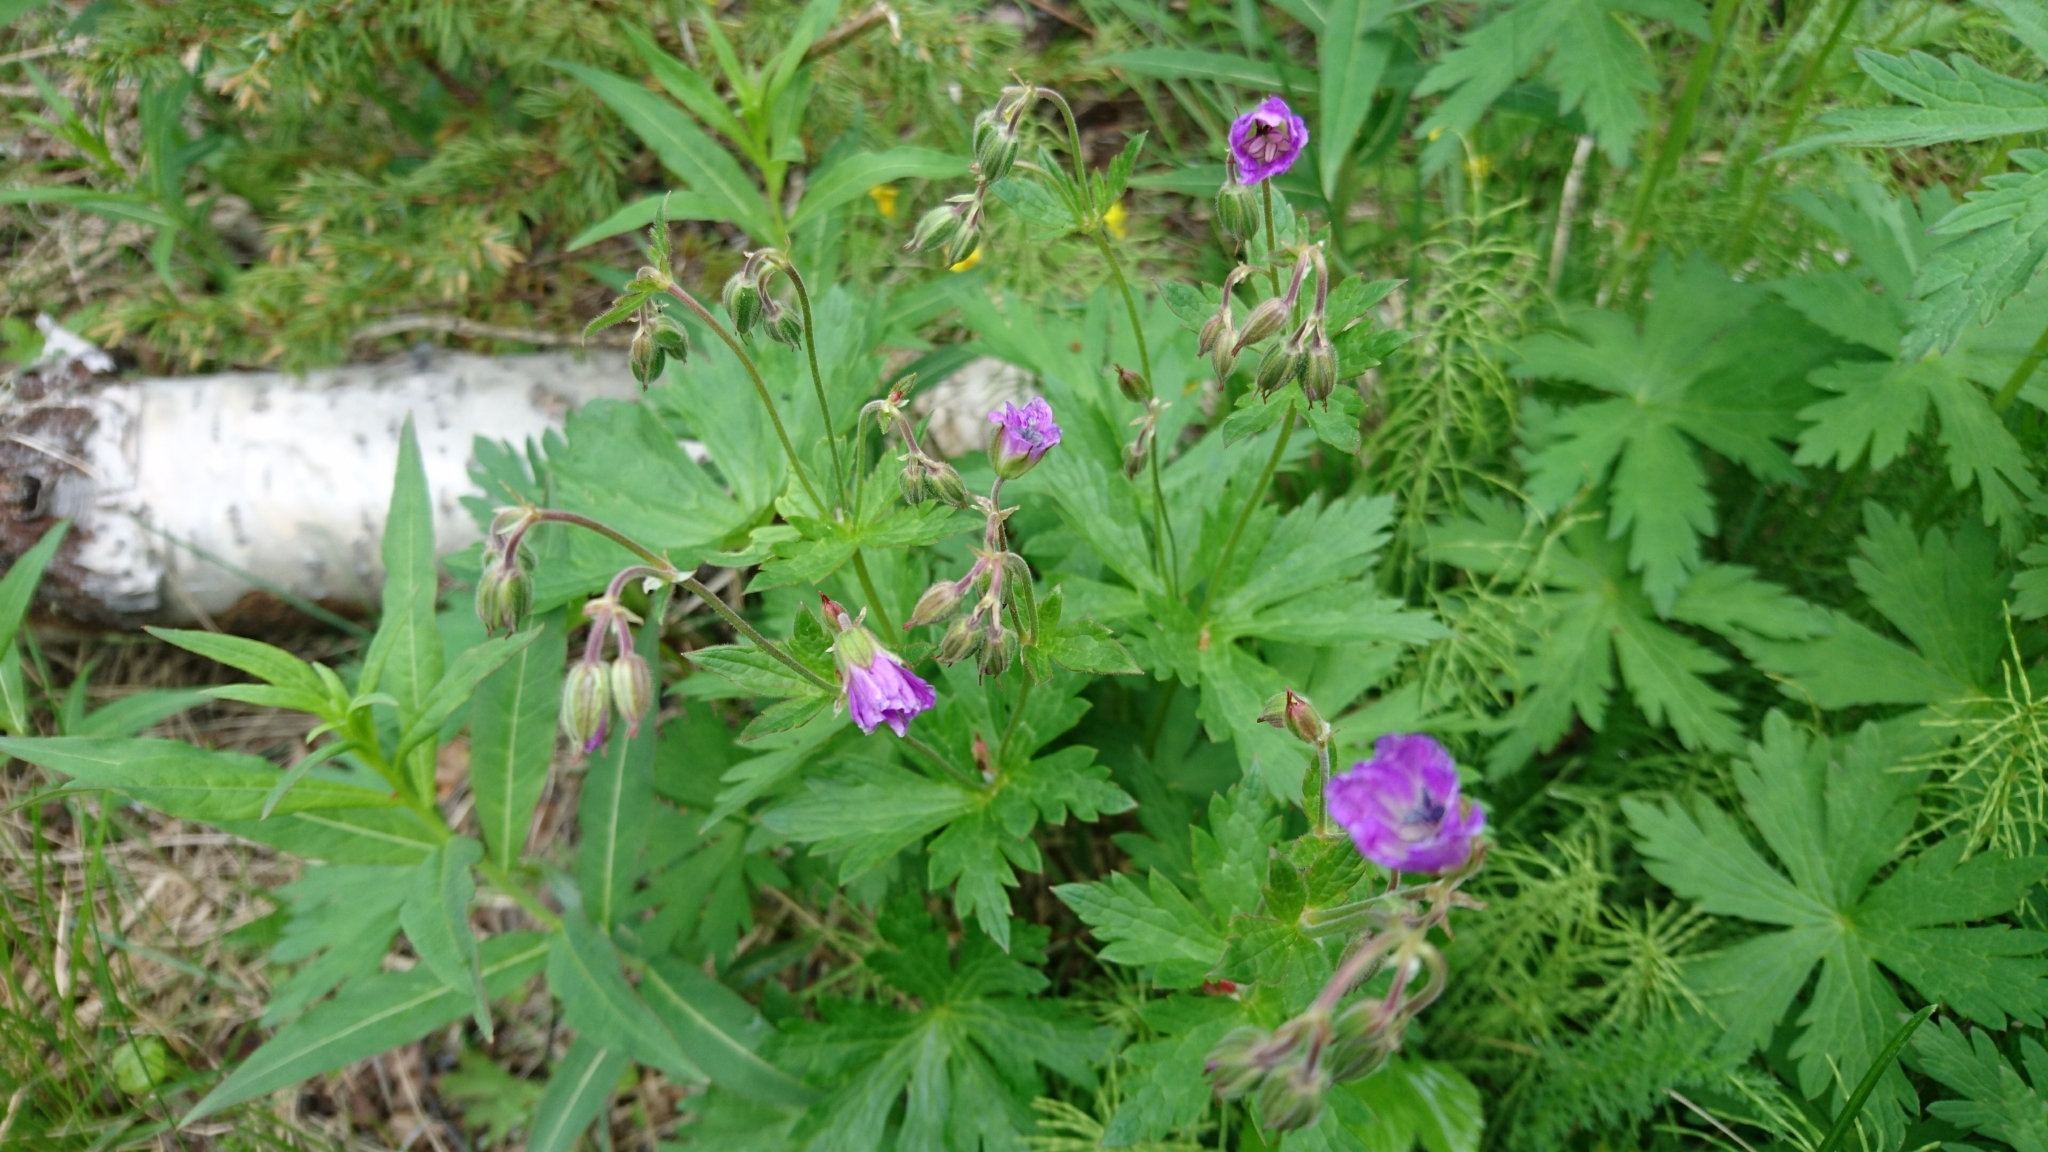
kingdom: Plantae
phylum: Tracheophyta
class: Magnoliopsida
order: Geraniales
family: Geraniaceae
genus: Geranium
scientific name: Geranium sylvaticum
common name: Wood crane's-bill
